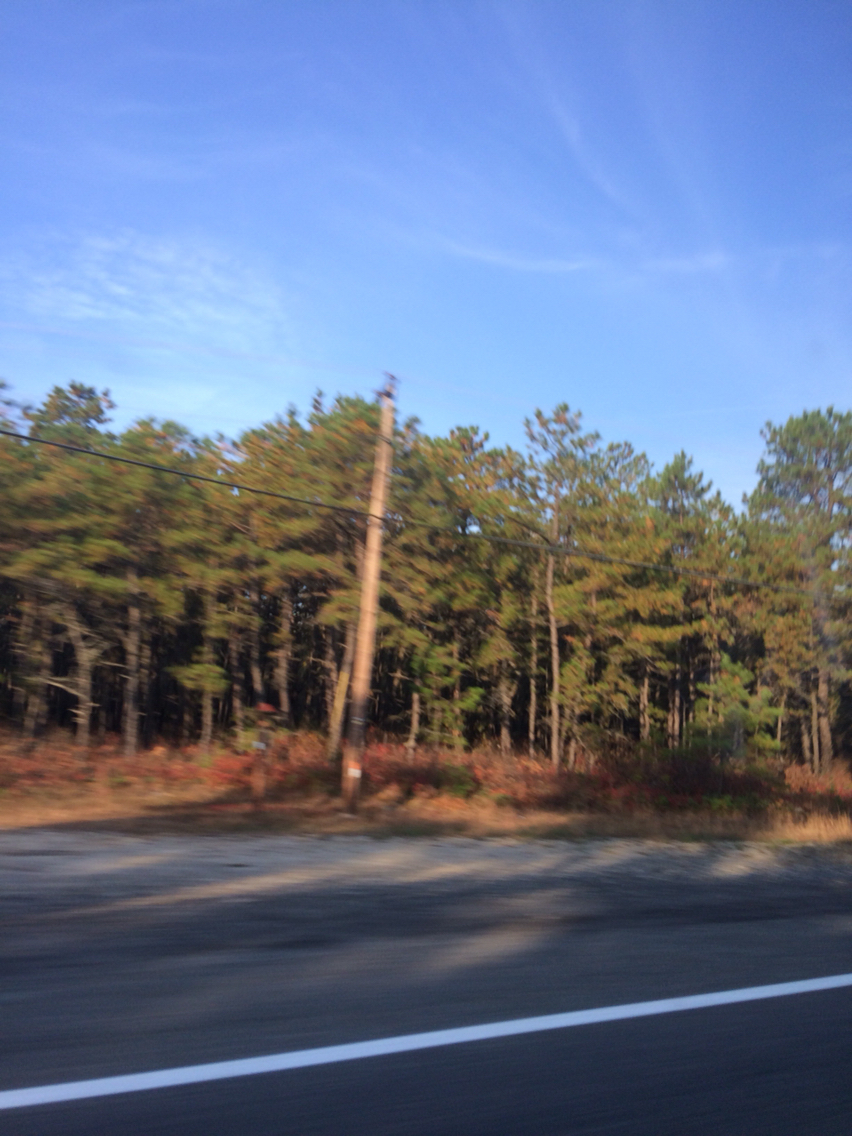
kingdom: Plantae
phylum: Tracheophyta
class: Pinopsida
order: Pinales
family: Pinaceae
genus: Pinus
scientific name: Pinus rigida
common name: Pitch pine
